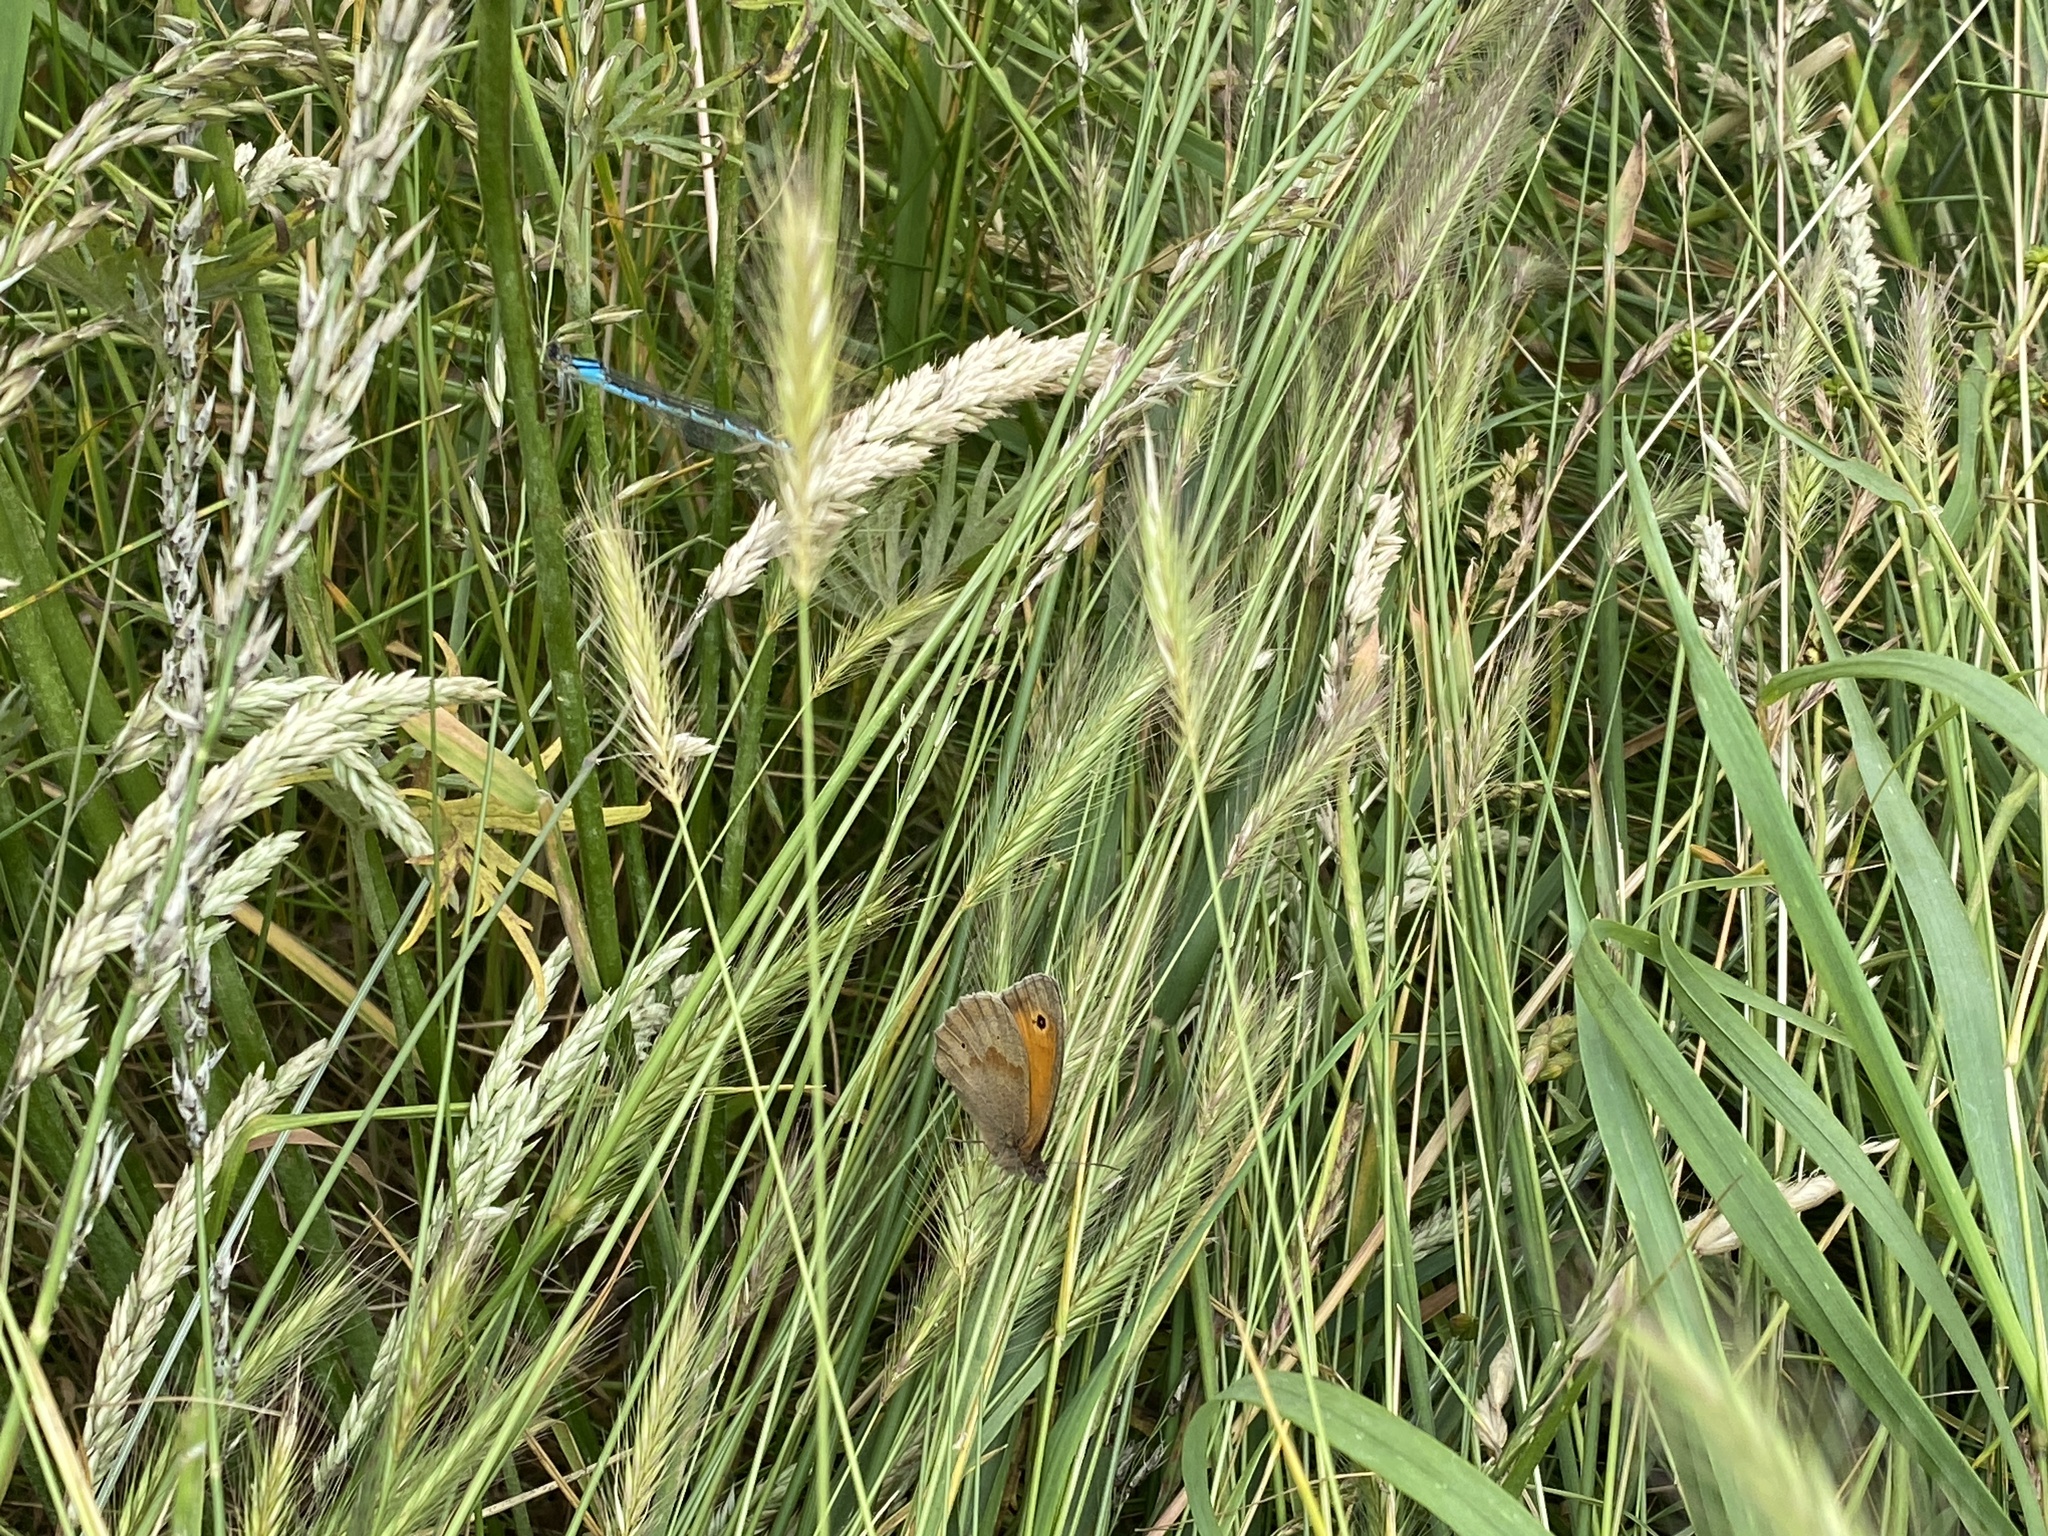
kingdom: Animalia
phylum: Arthropoda
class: Insecta
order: Lepidoptera
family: Nymphalidae
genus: Maniola
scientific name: Maniola jurtina
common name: Meadow brown
